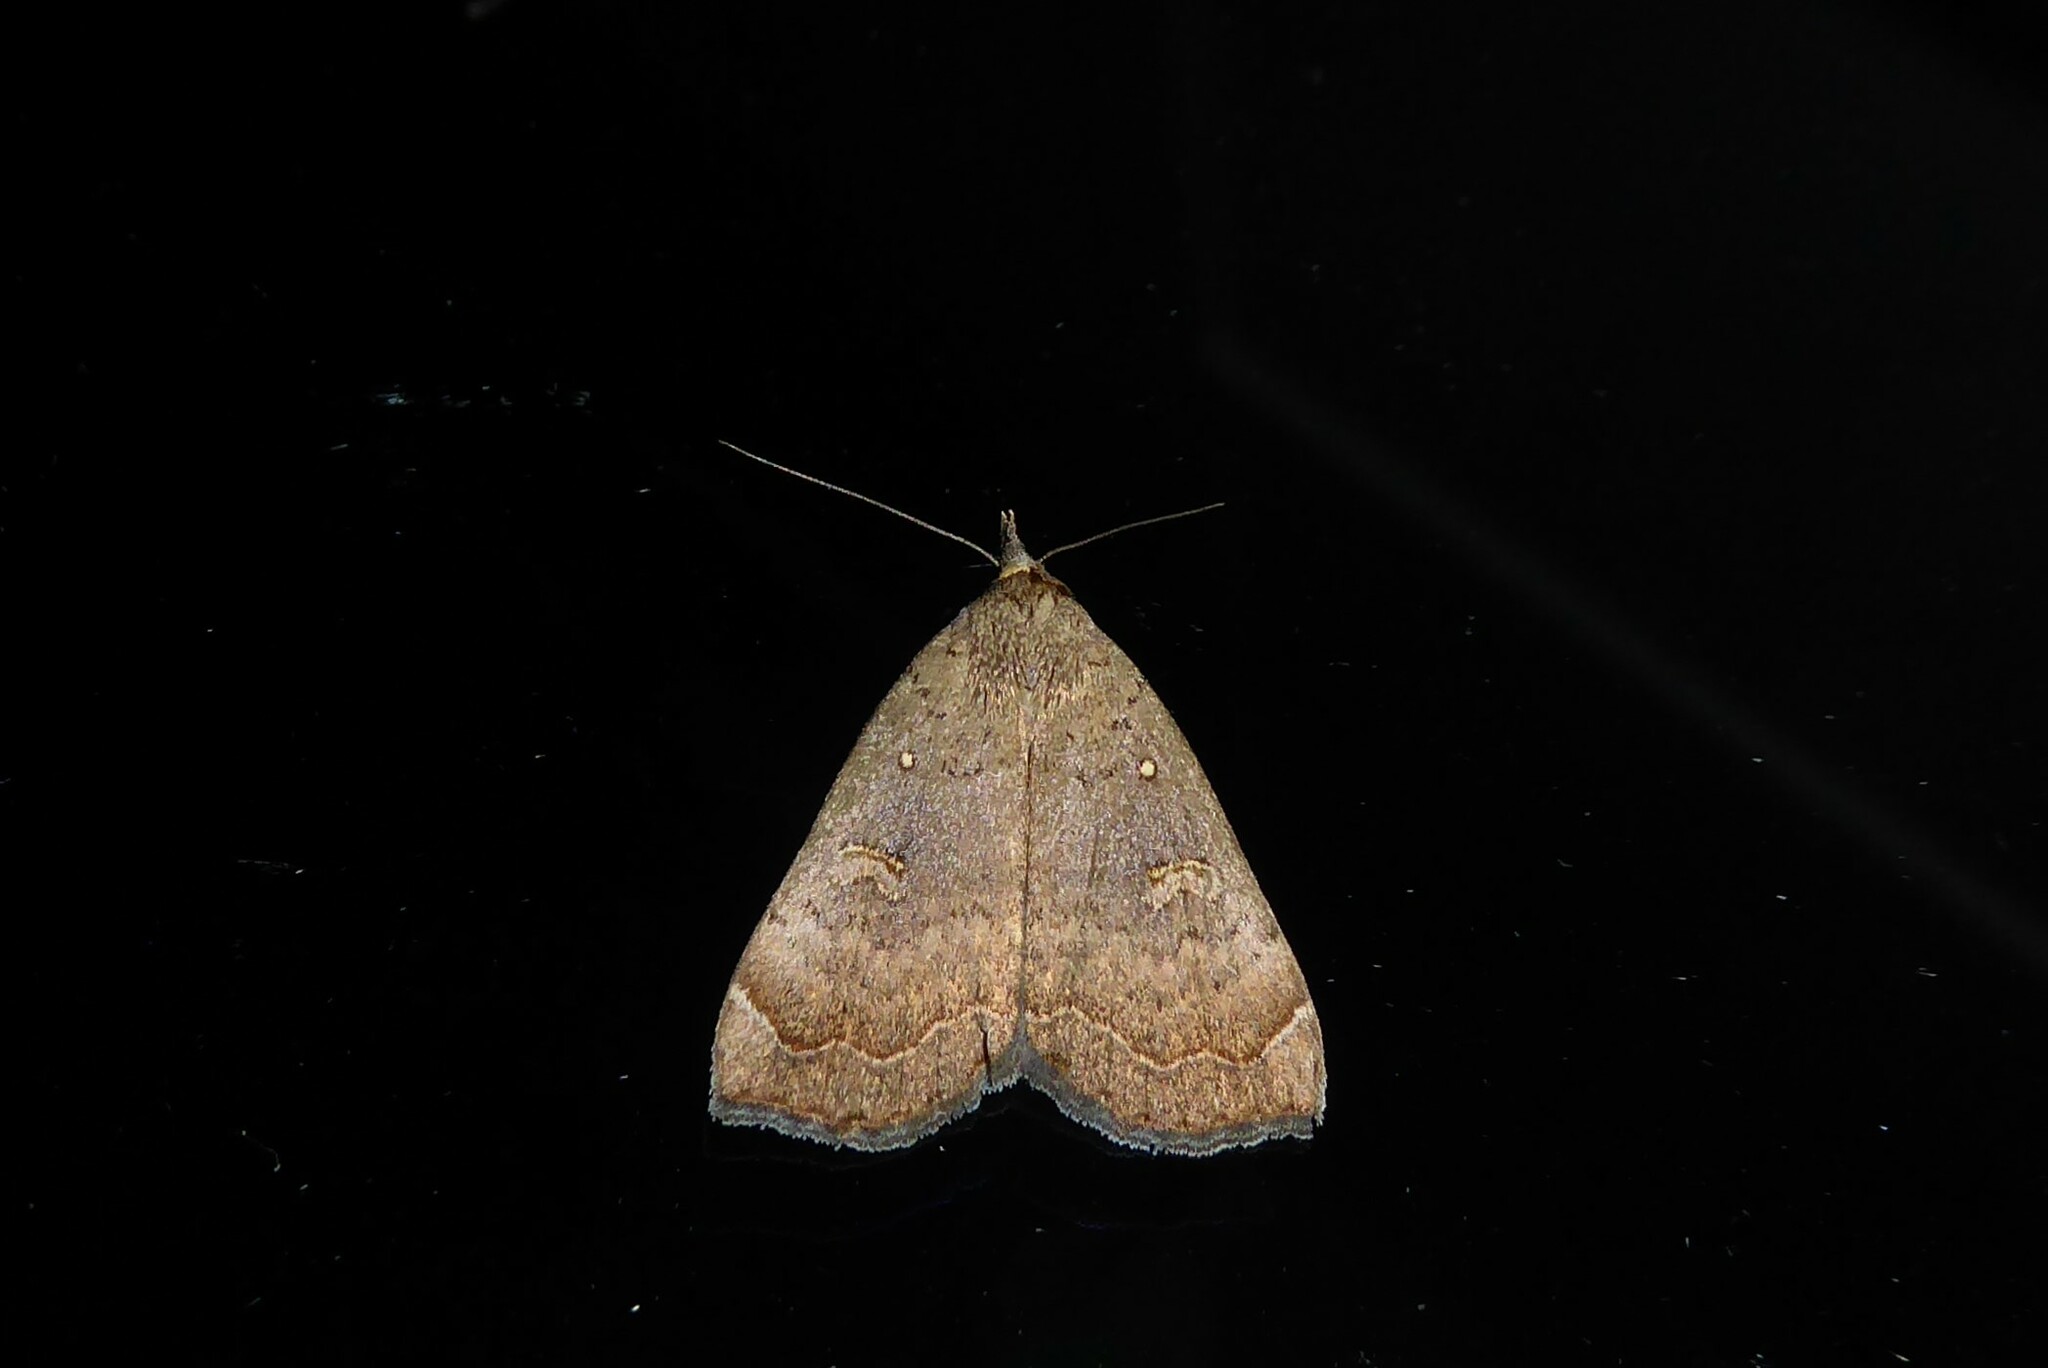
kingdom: Animalia
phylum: Arthropoda
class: Insecta
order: Lepidoptera
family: Erebidae
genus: Rhapsa
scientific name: Rhapsa scotosialis
